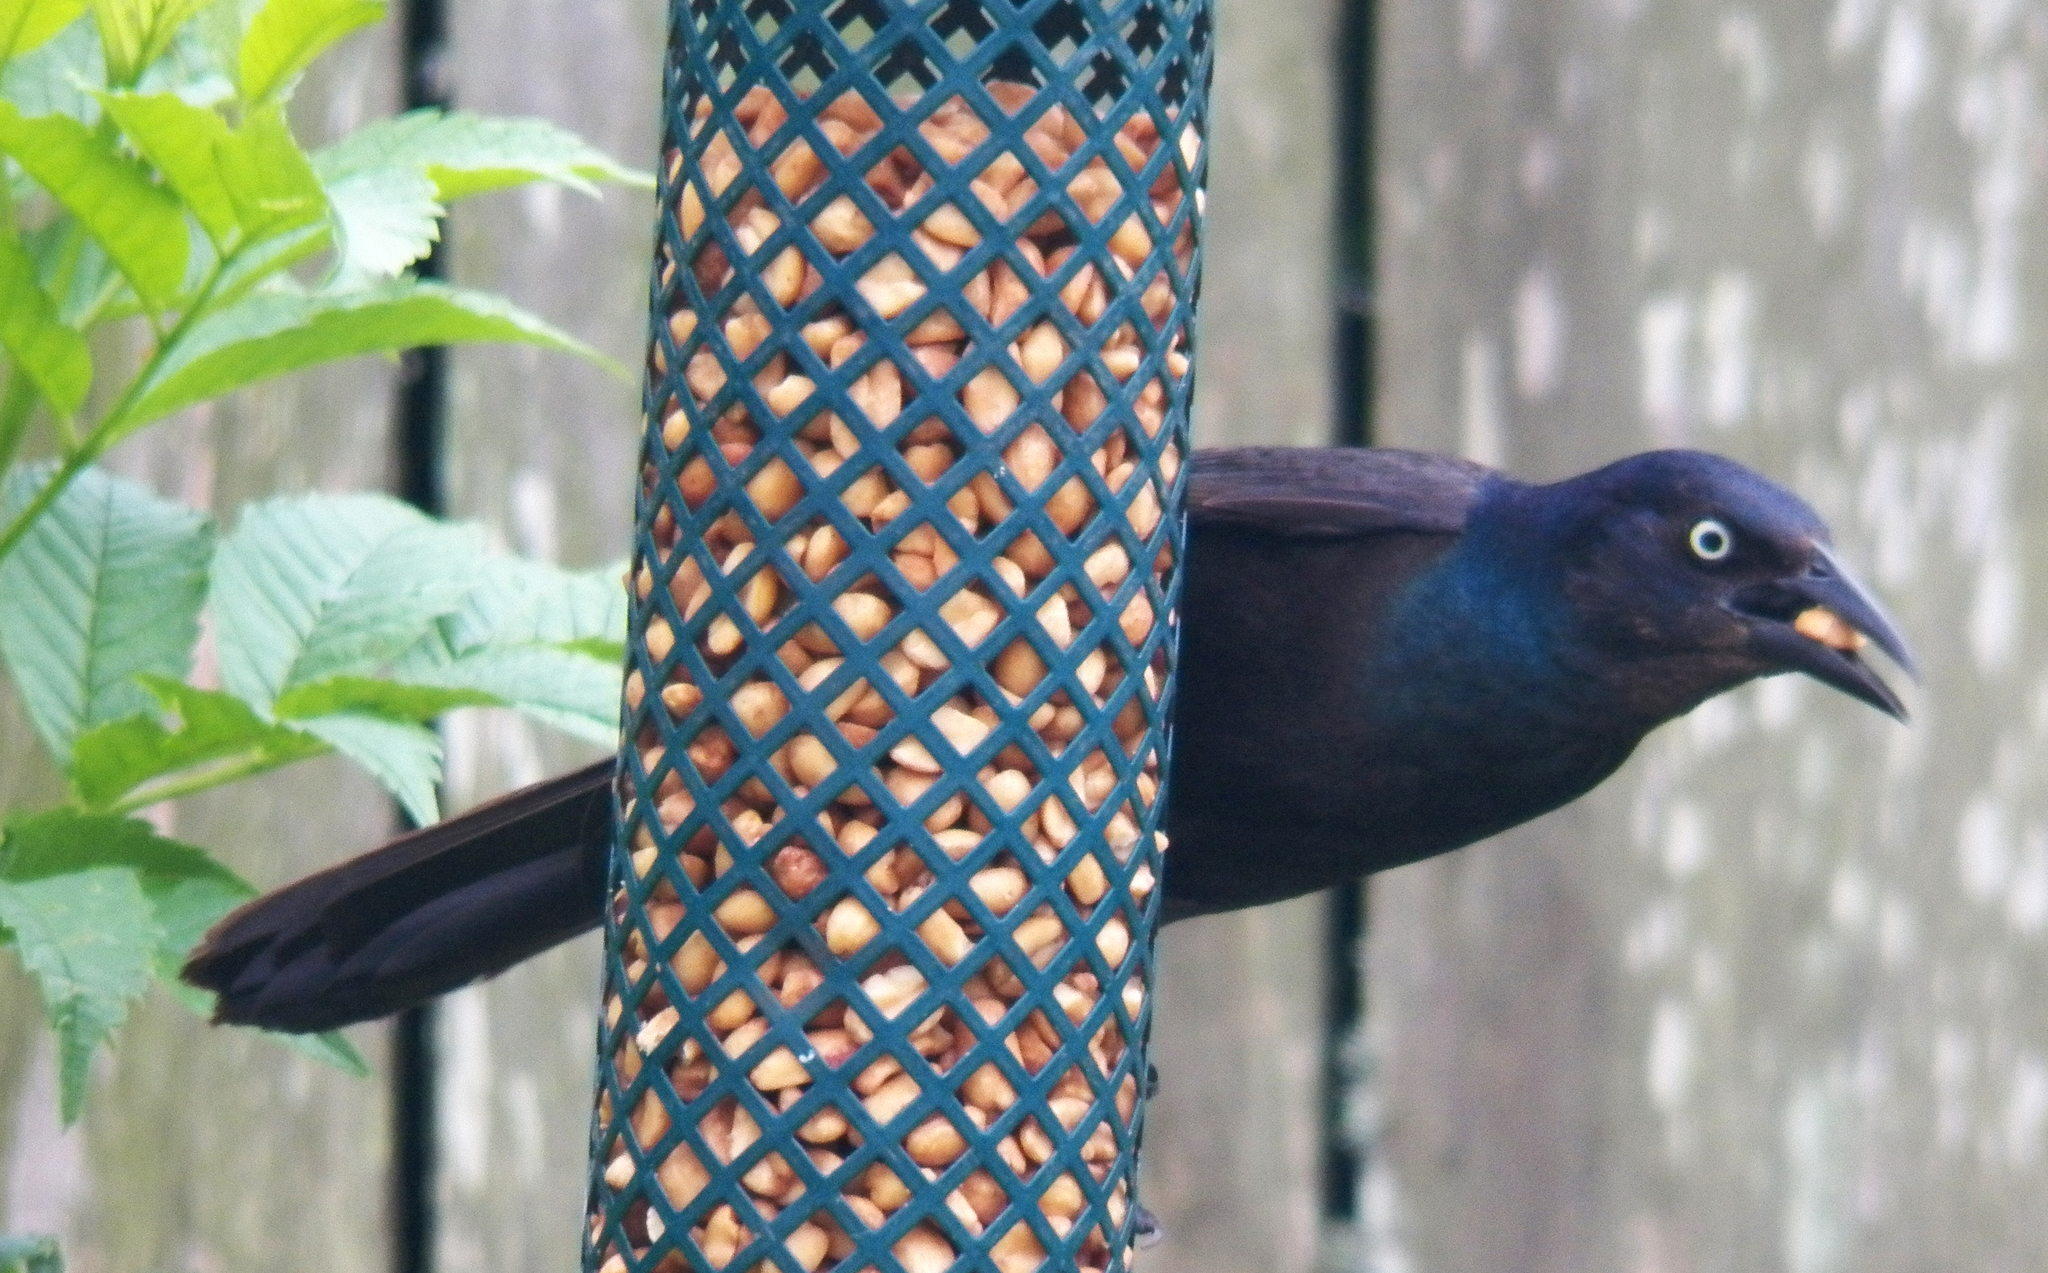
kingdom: Animalia
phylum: Chordata
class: Aves
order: Passeriformes
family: Icteridae
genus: Quiscalus
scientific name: Quiscalus quiscula
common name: Common grackle
